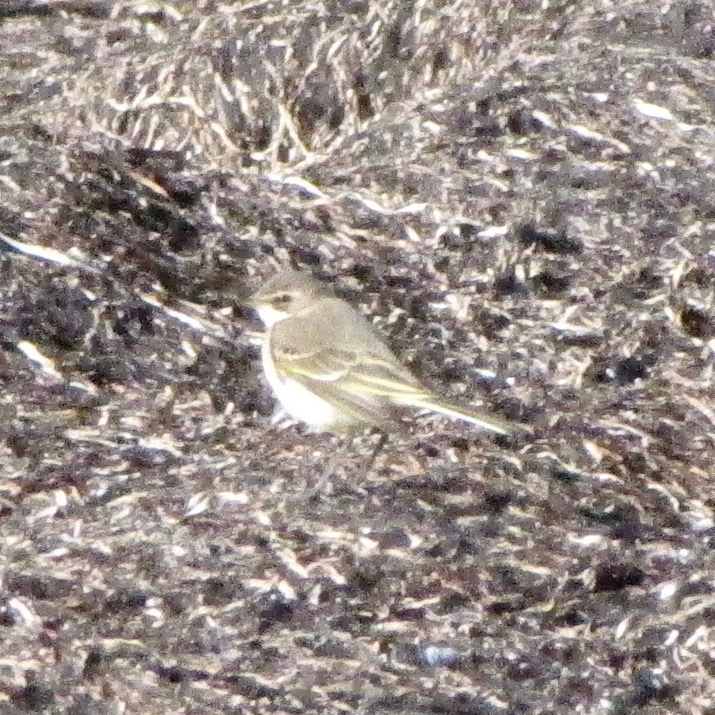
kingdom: Animalia
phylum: Chordata
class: Aves
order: Passeriformes
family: Motacillidae
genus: Motacilla
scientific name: Motacilla flava
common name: Western yellow wagtail
